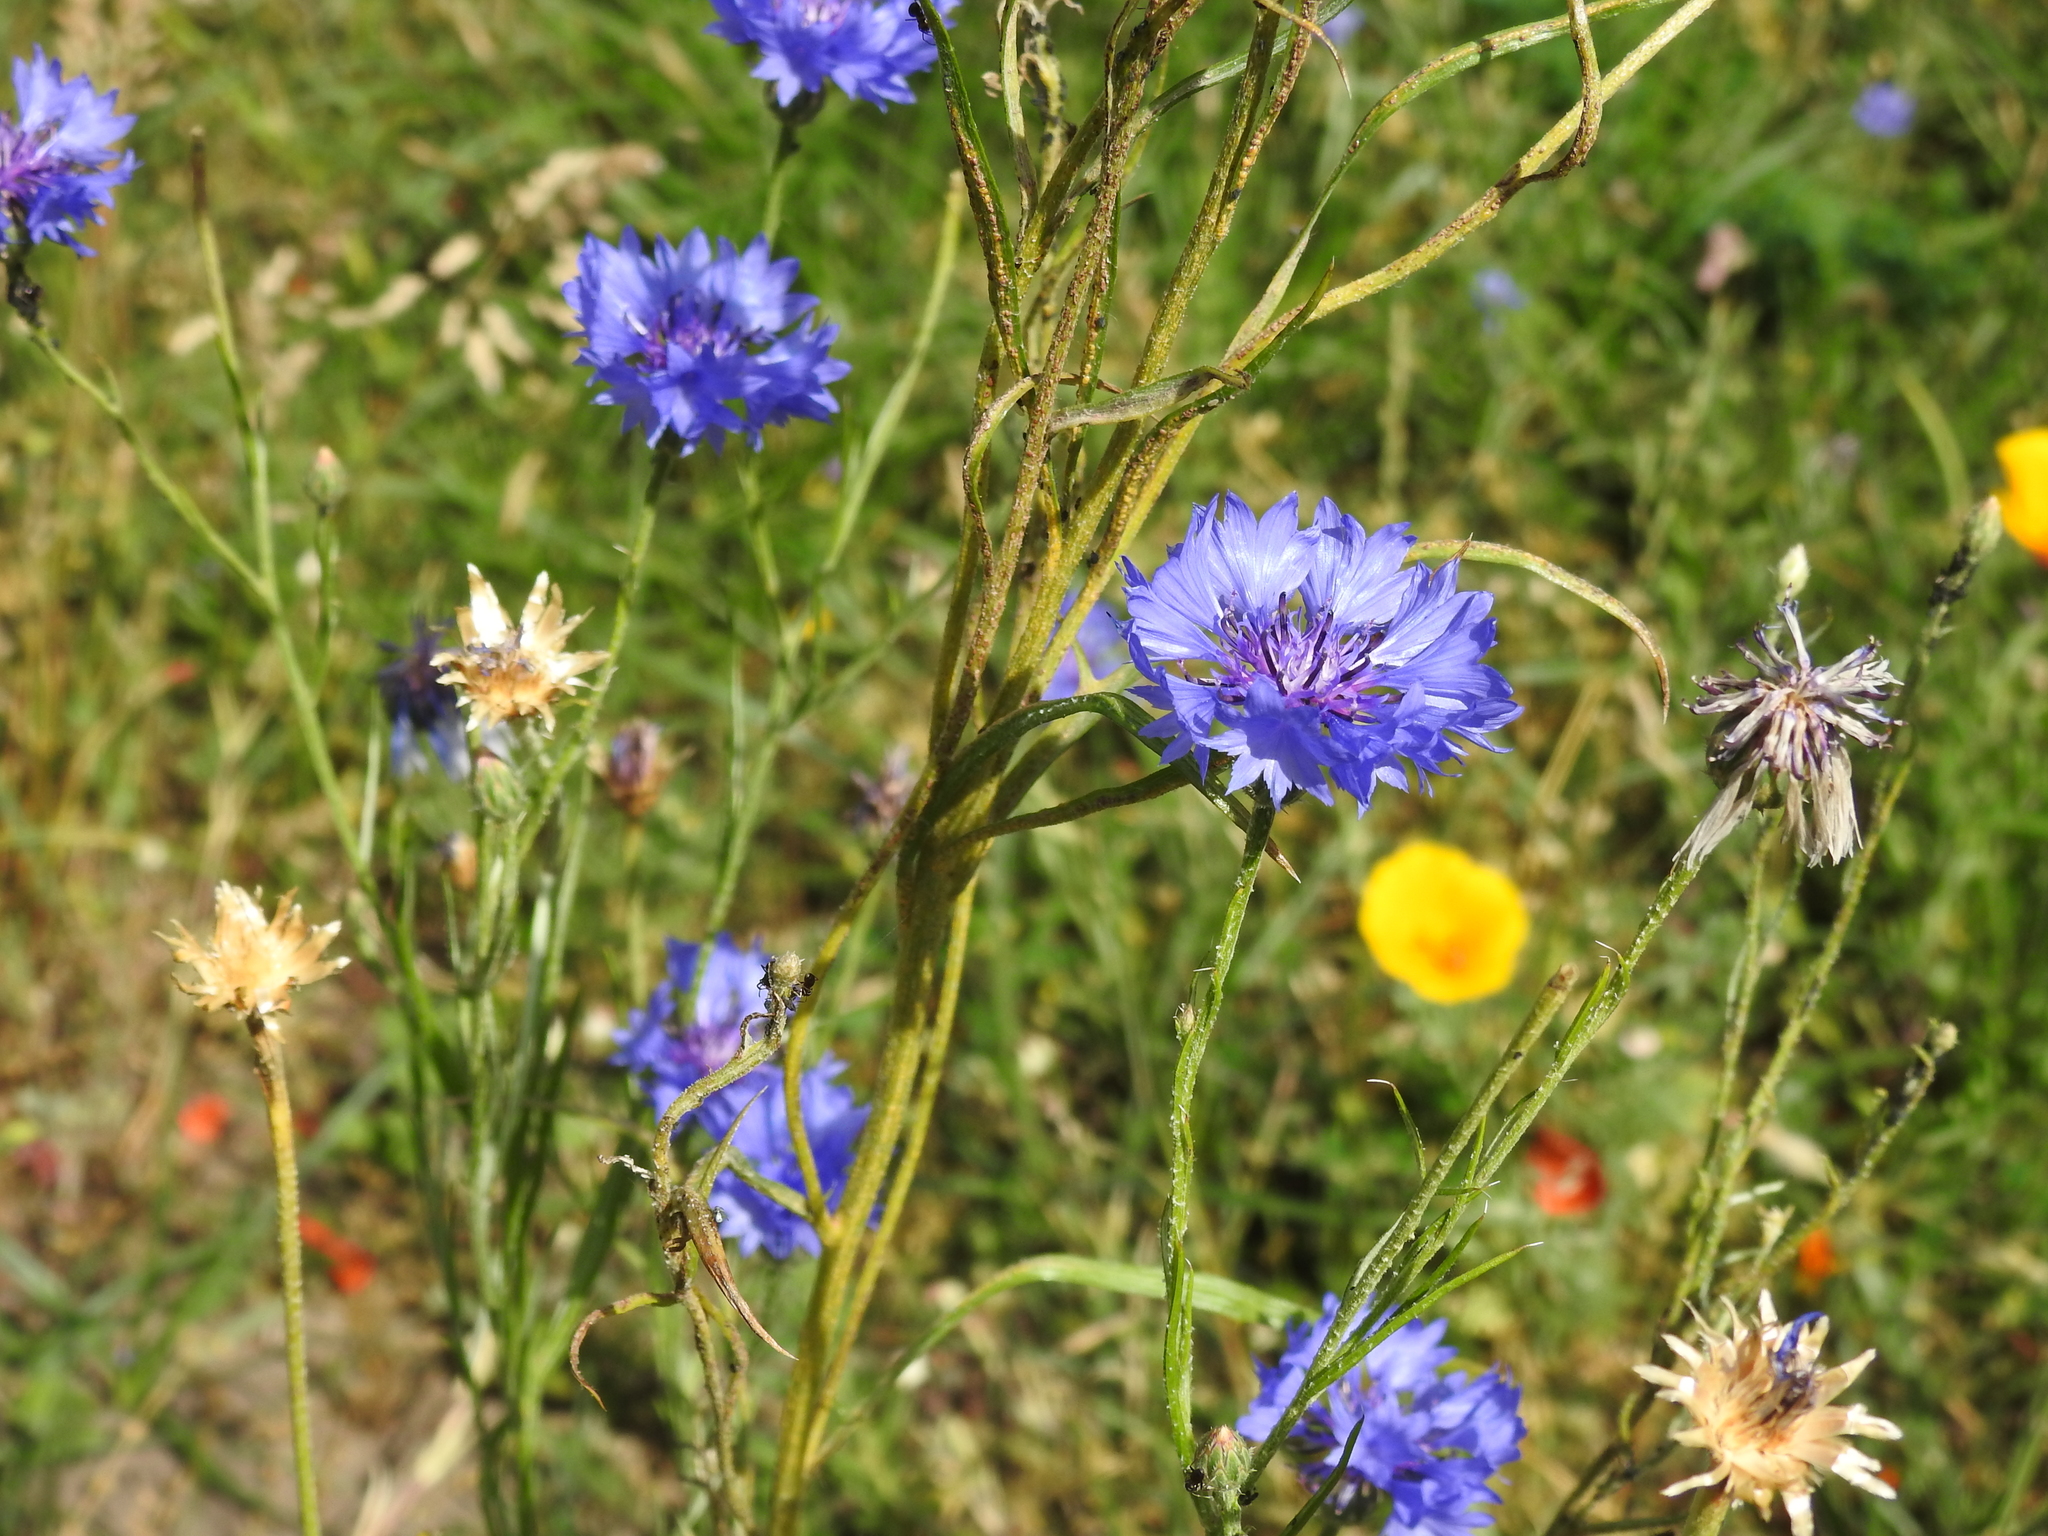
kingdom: Plantae
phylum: Tracheophyta
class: Magnoliopsida
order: Asterales
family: Asteraceae
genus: Centaurea
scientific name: Centaurea cyanus
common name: Cornflower
